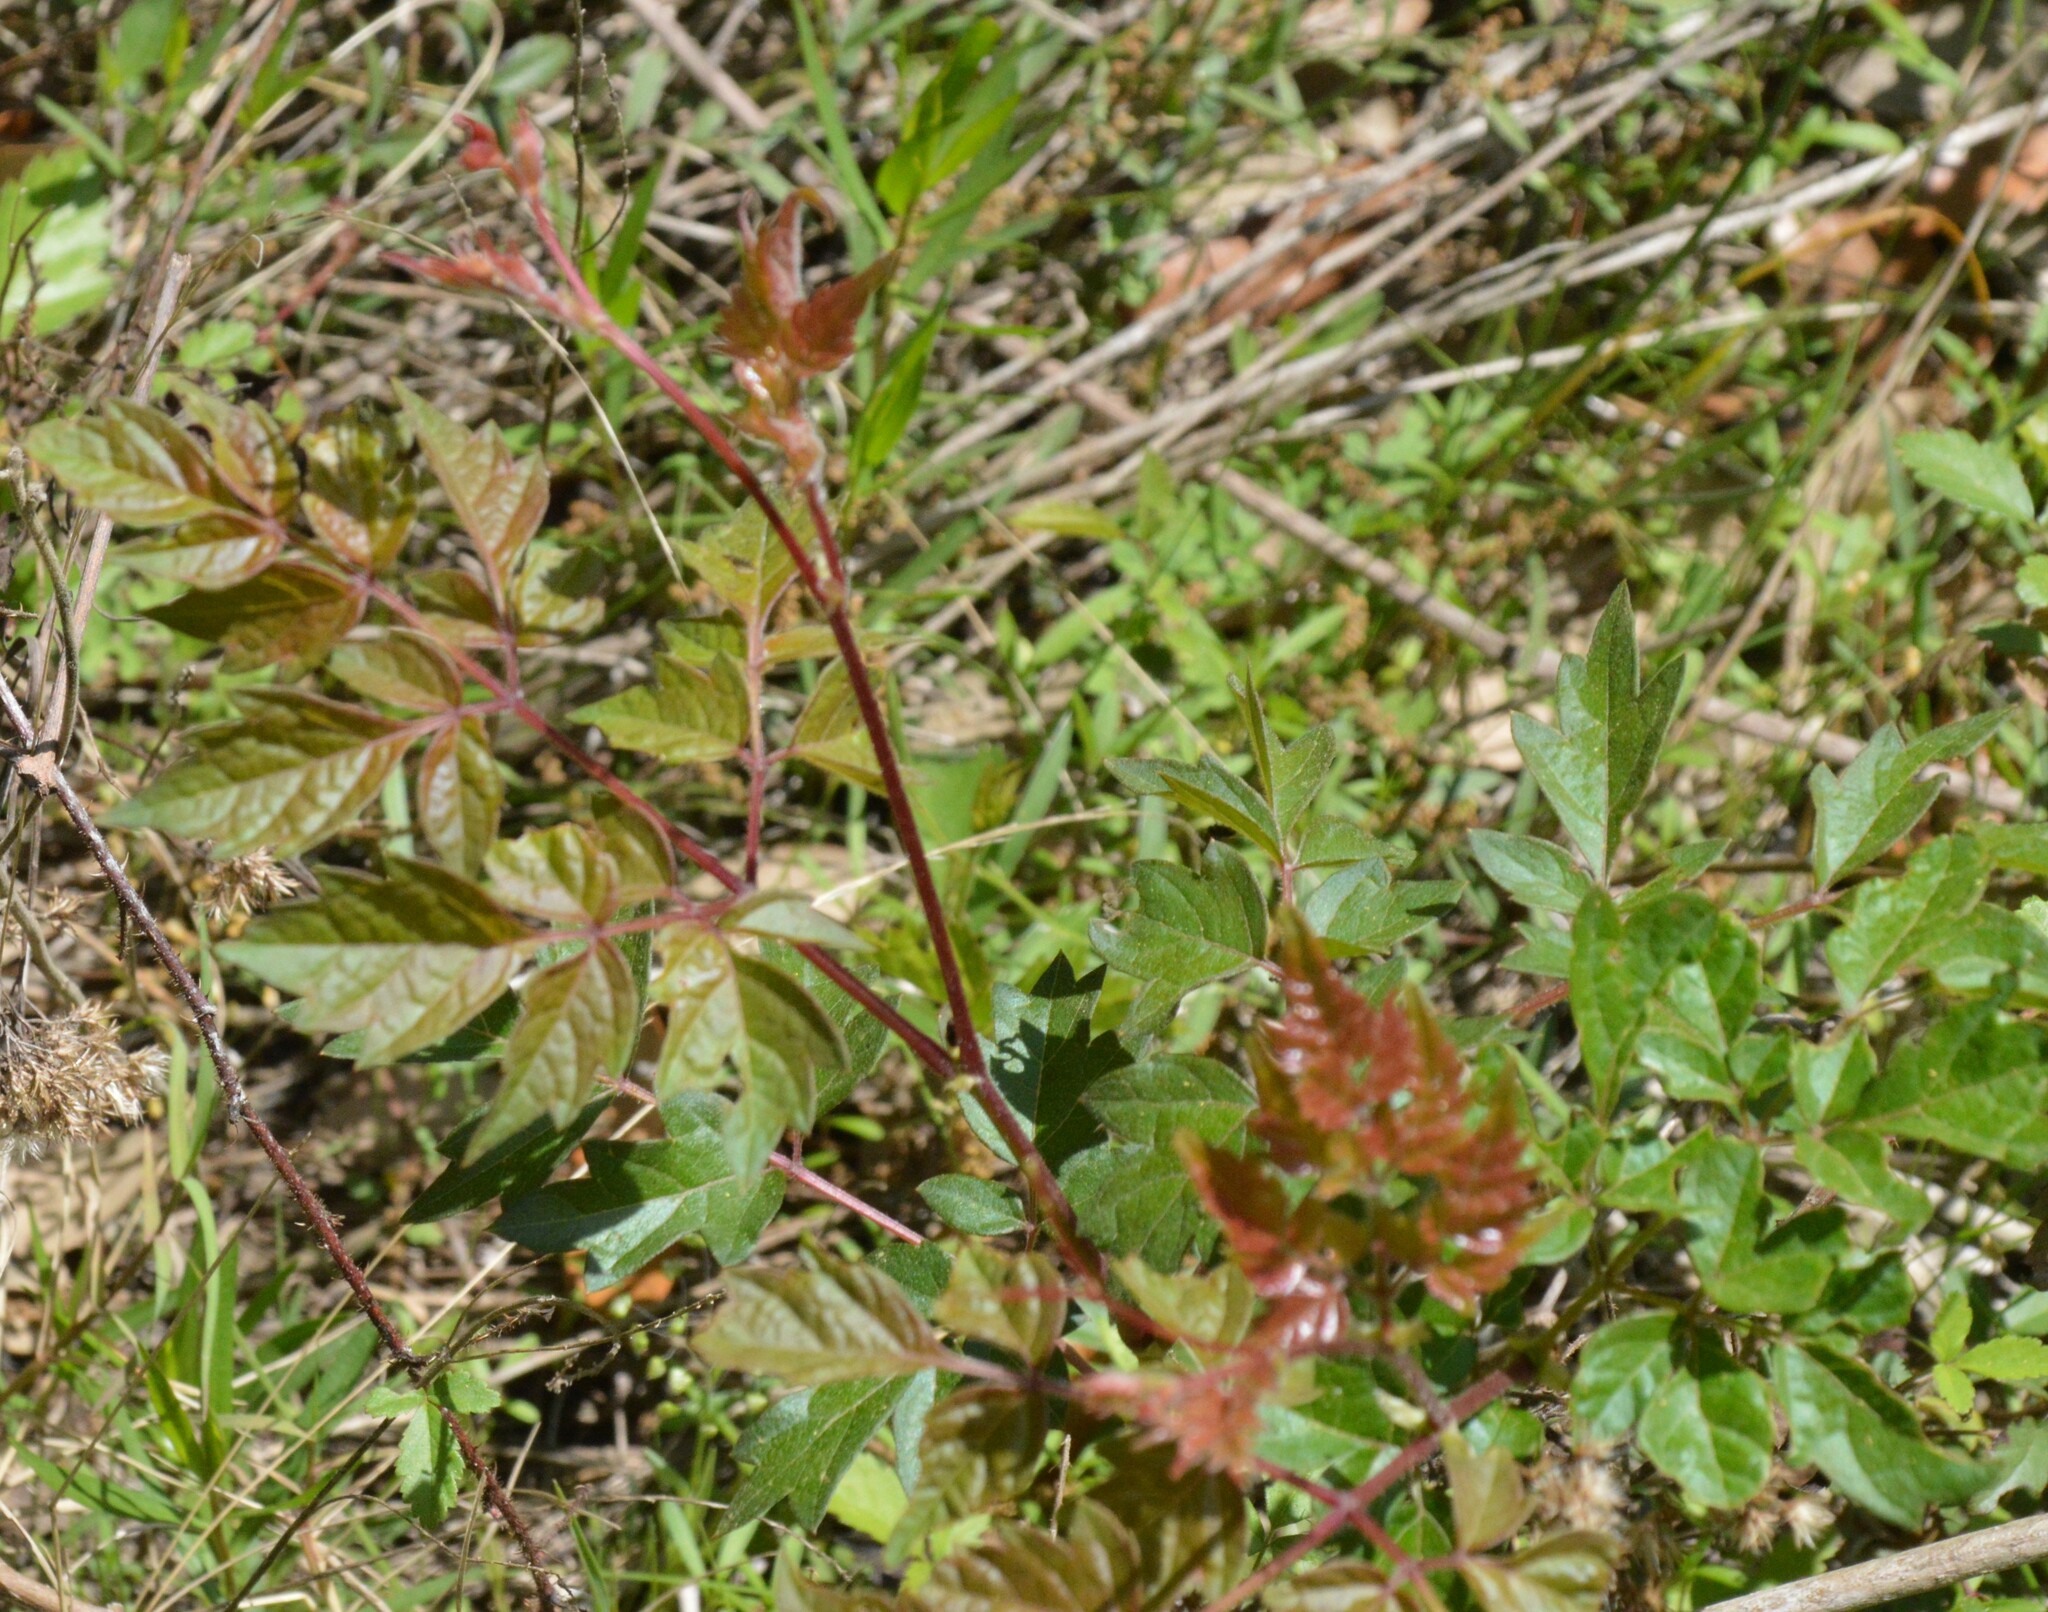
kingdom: Plantae
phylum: Tracheophyta
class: Magnoliopsida
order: Vitales
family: Vitaceae
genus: Nekemias
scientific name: Nekemias arborea
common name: Peppervine
